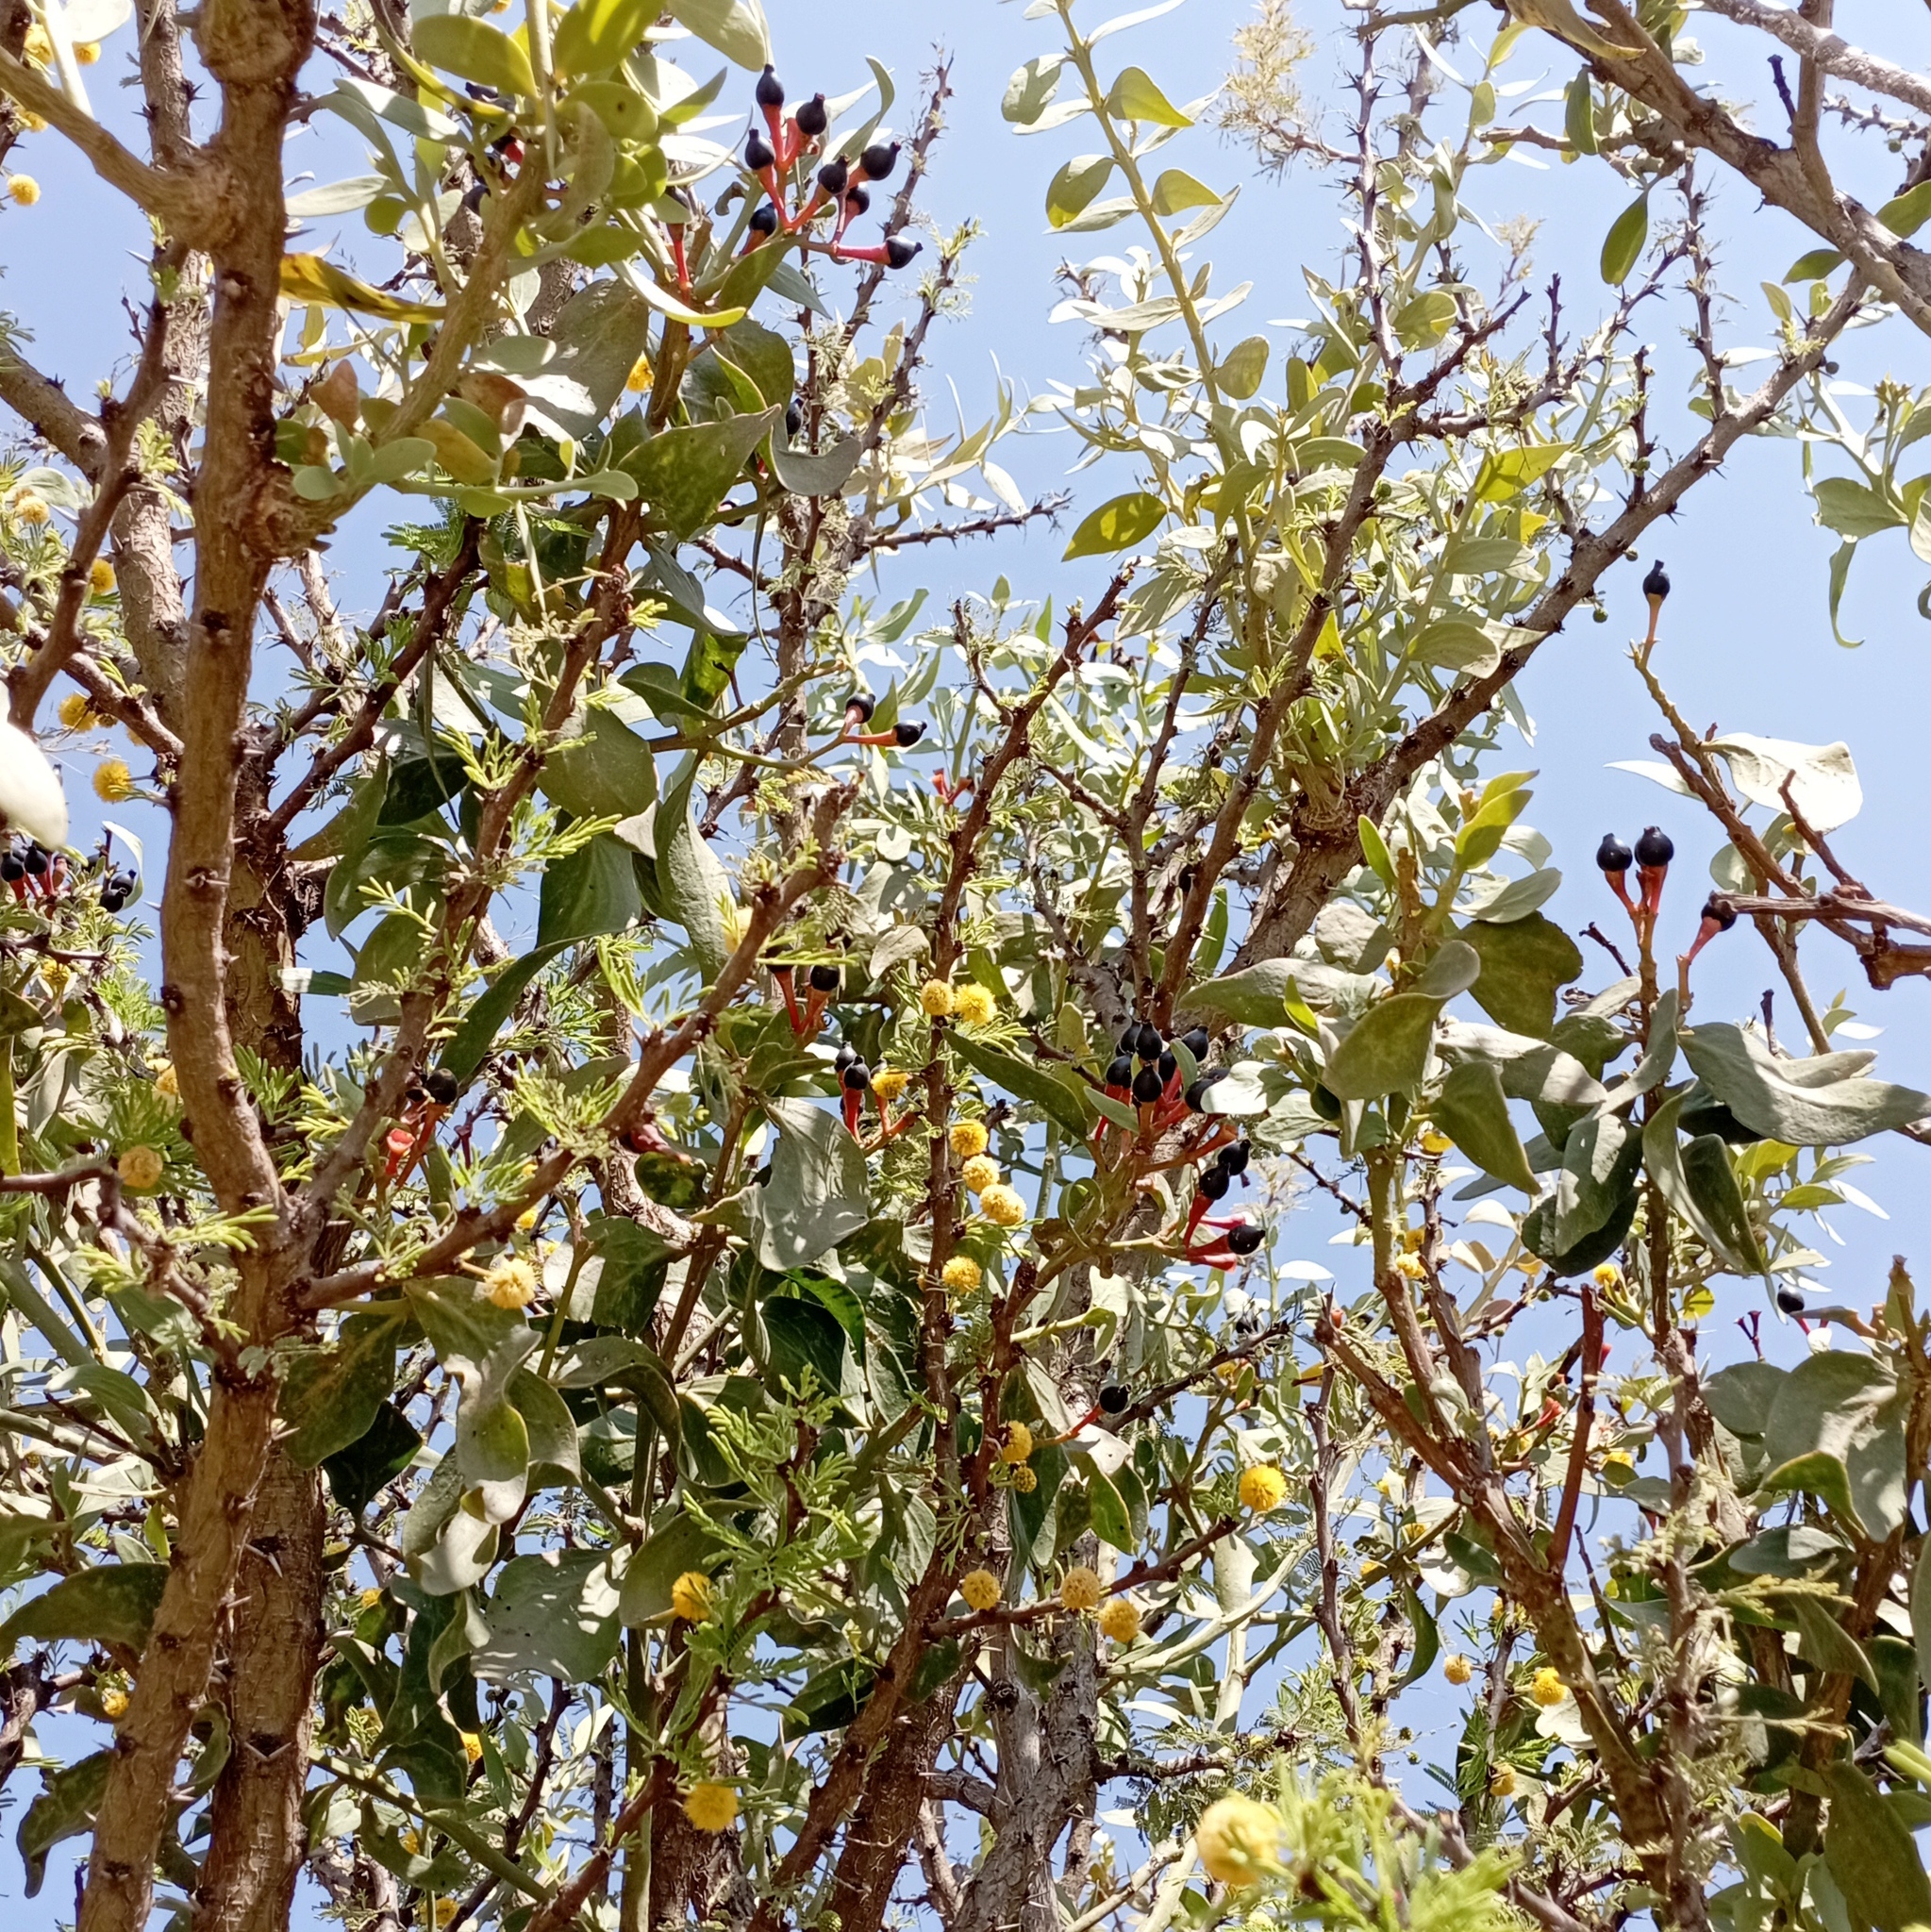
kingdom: Plantae
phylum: Tracheophyta
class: Magnoliopsida
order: Santalales
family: Loranthaceae
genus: Psittacanthus
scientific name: Psittacanthus calyculatus
